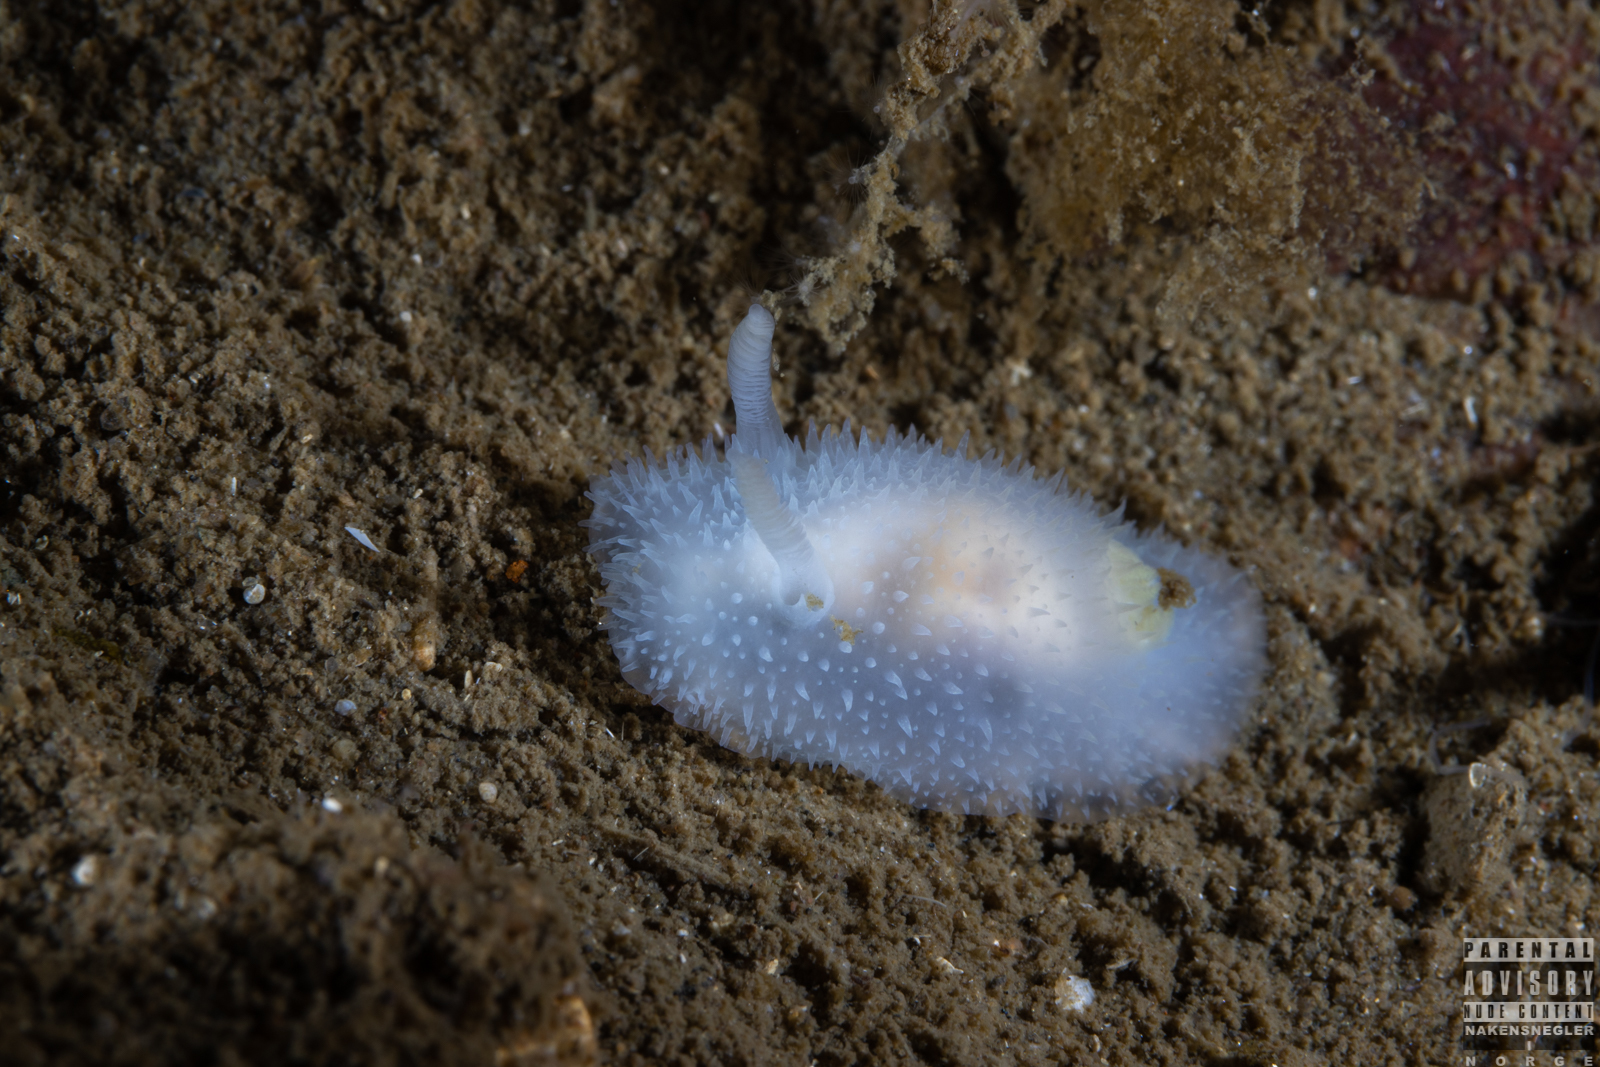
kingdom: Animalia
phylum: Mollusca
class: Gastropoda
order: Nudibranchia
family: Onchidorididae
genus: Acanthodoris
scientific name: Acanthodoris pilosa
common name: Hairy spiny doris
